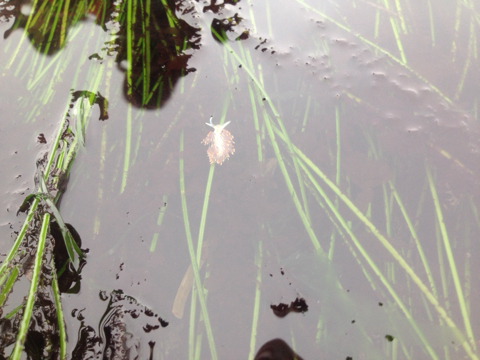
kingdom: Animalia
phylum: Mollusca
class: Gastropoda
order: Nudibranchia
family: Myrrhinidae
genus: Hermissenda
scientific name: Hermissenda opalescens
